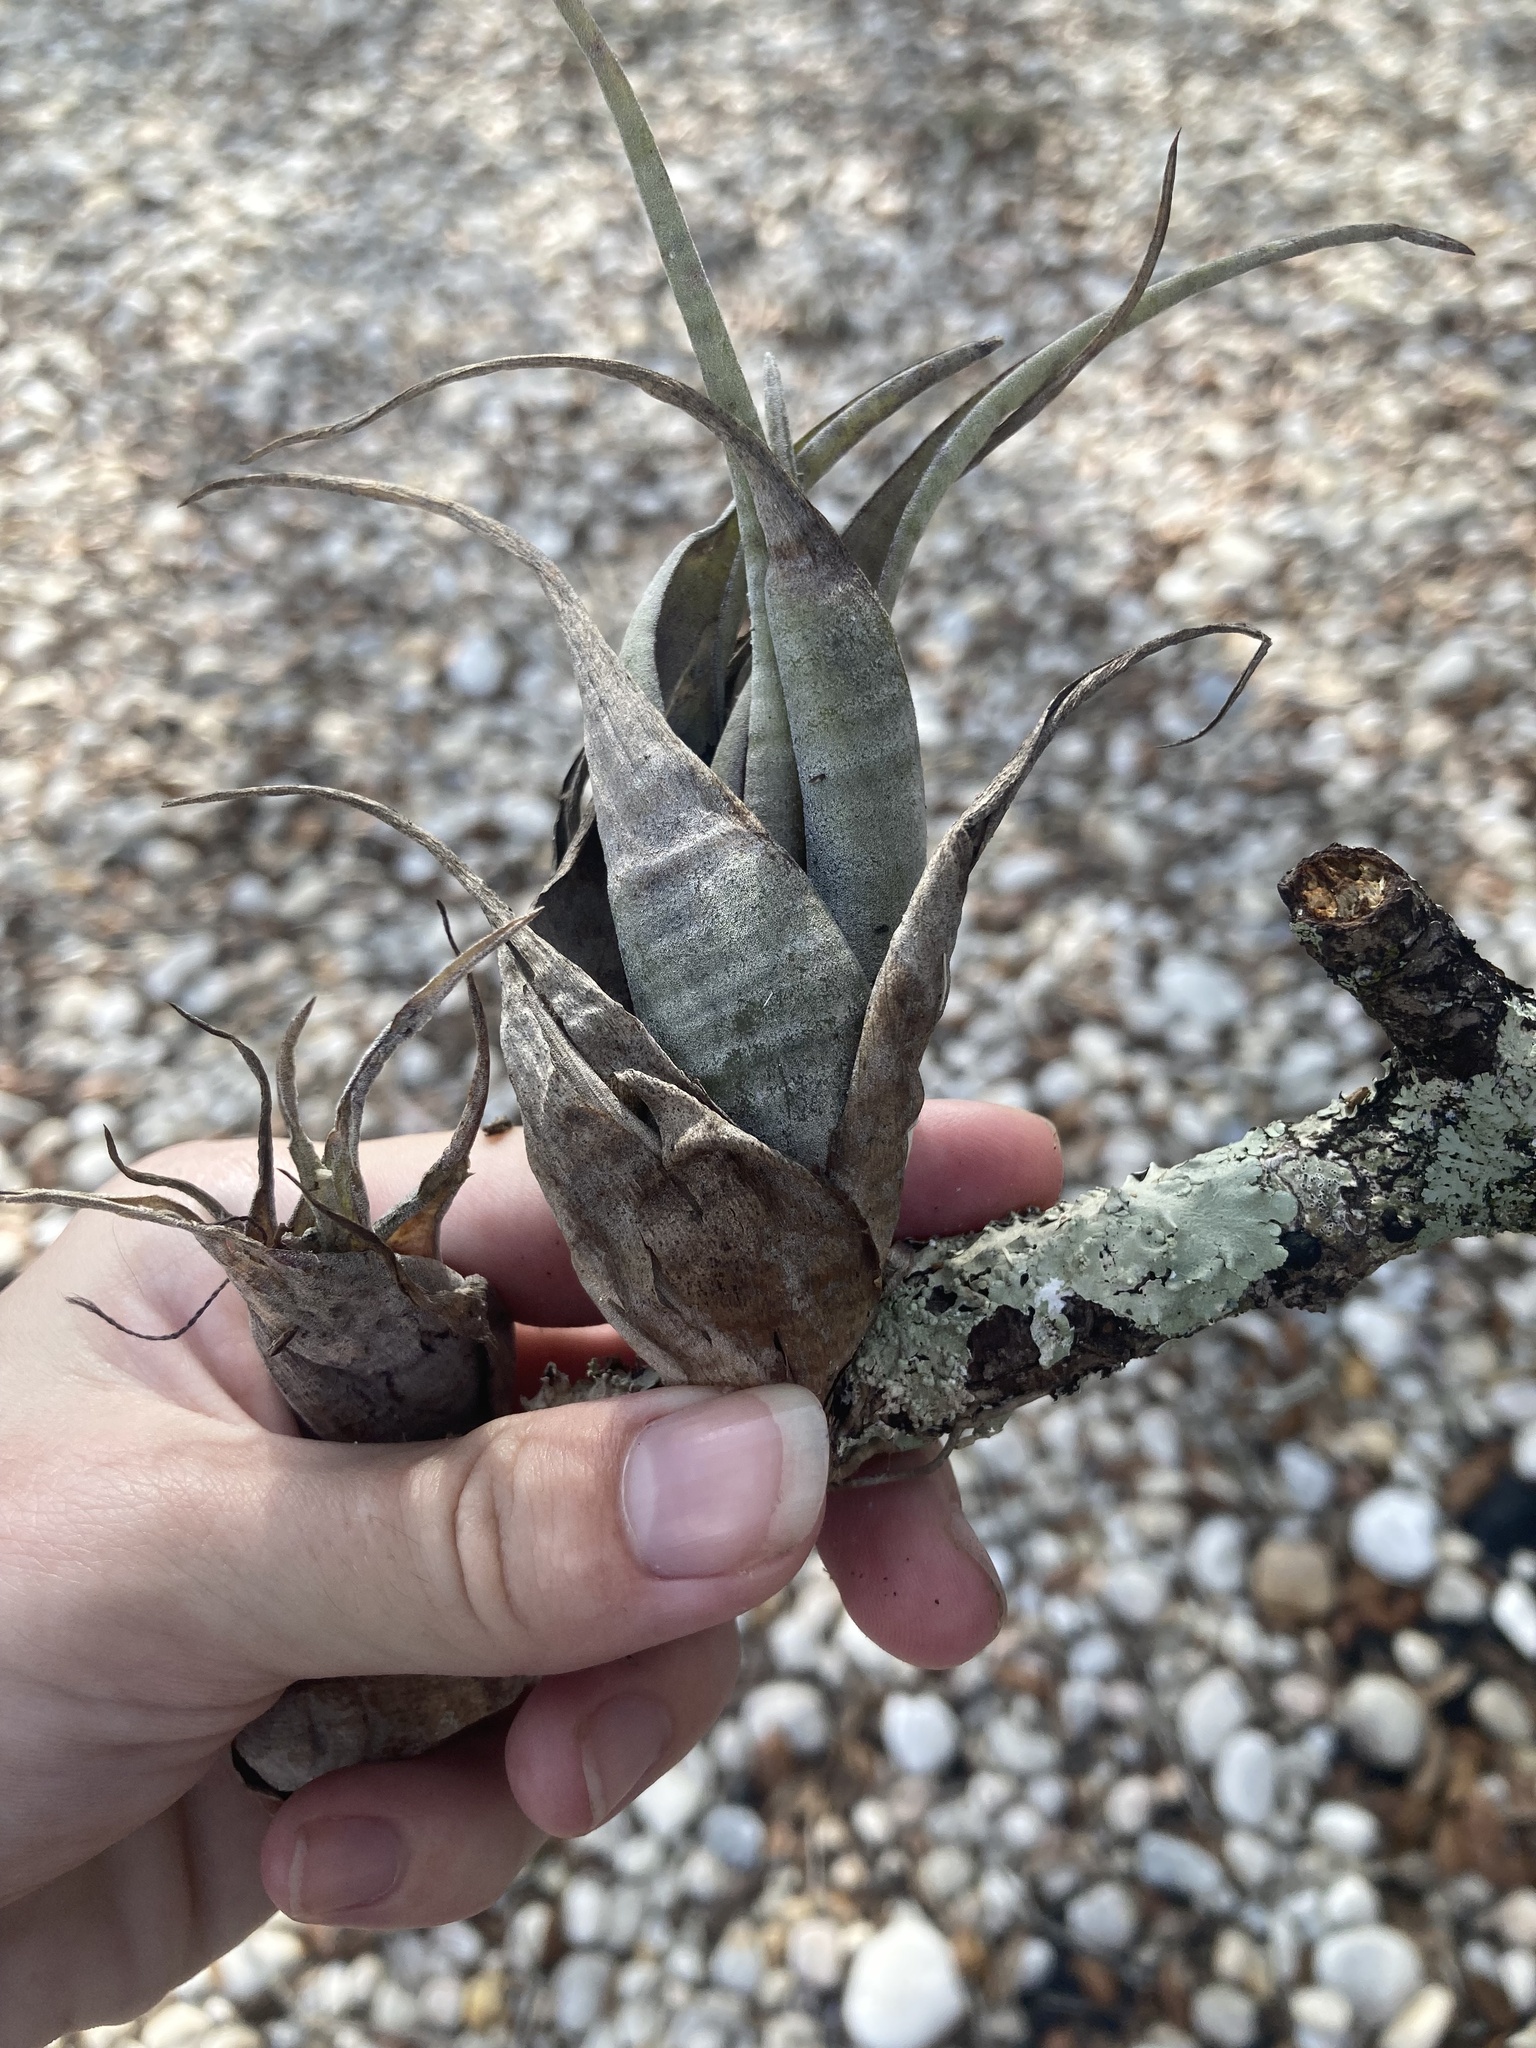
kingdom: Plantae
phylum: Tracheophyta
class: Liliopsida
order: Poales
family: Bromeliaceae
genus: Tillandsia
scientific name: Tillandsia flexuosa
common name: Banded airplant
